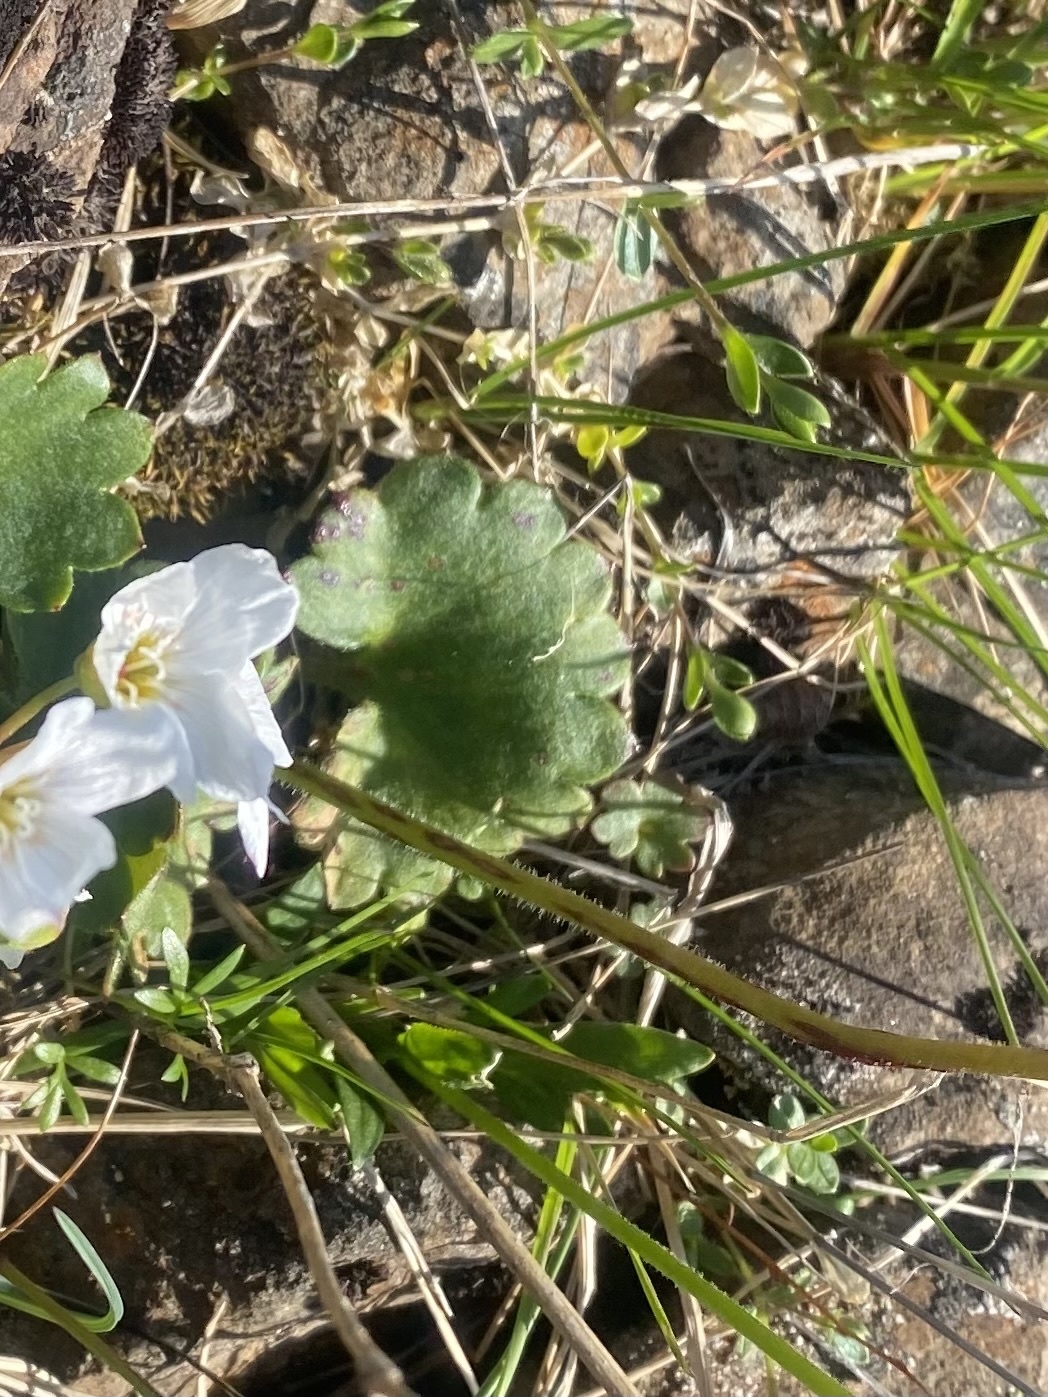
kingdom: Plantae
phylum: Tracheophyta
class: Magnoliopsida
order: Saxifragales
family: Saxifragaceae
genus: Micranthes
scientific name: Micranthes nelsoniana
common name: Nelson's saxifrage
